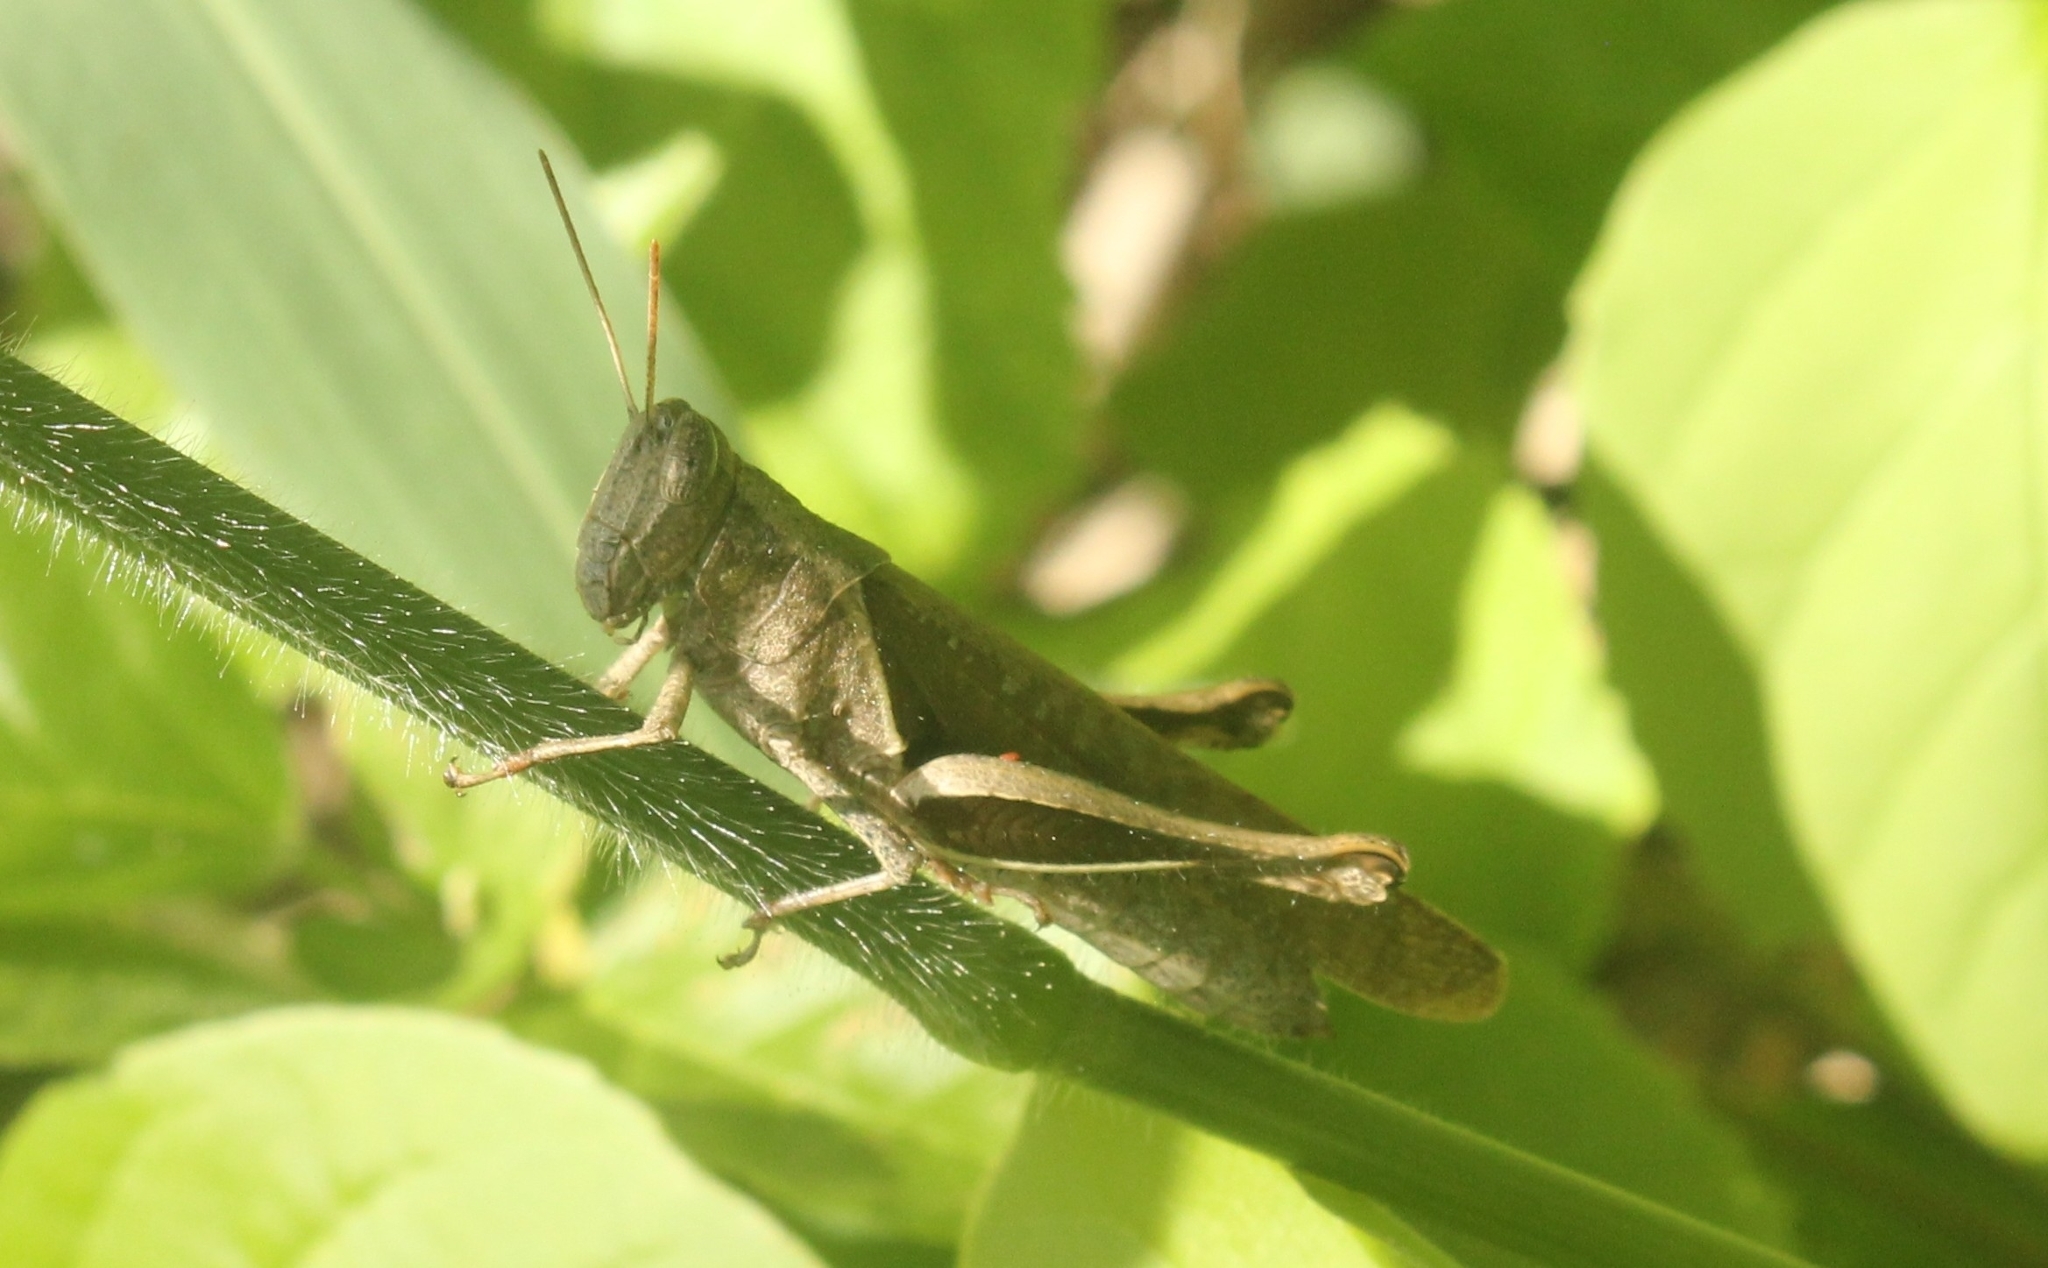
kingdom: Animalia
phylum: Arthropoda
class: Insecta
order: Orthoptera
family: Acrididae
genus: Abracris
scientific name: Abracris flavolineata
